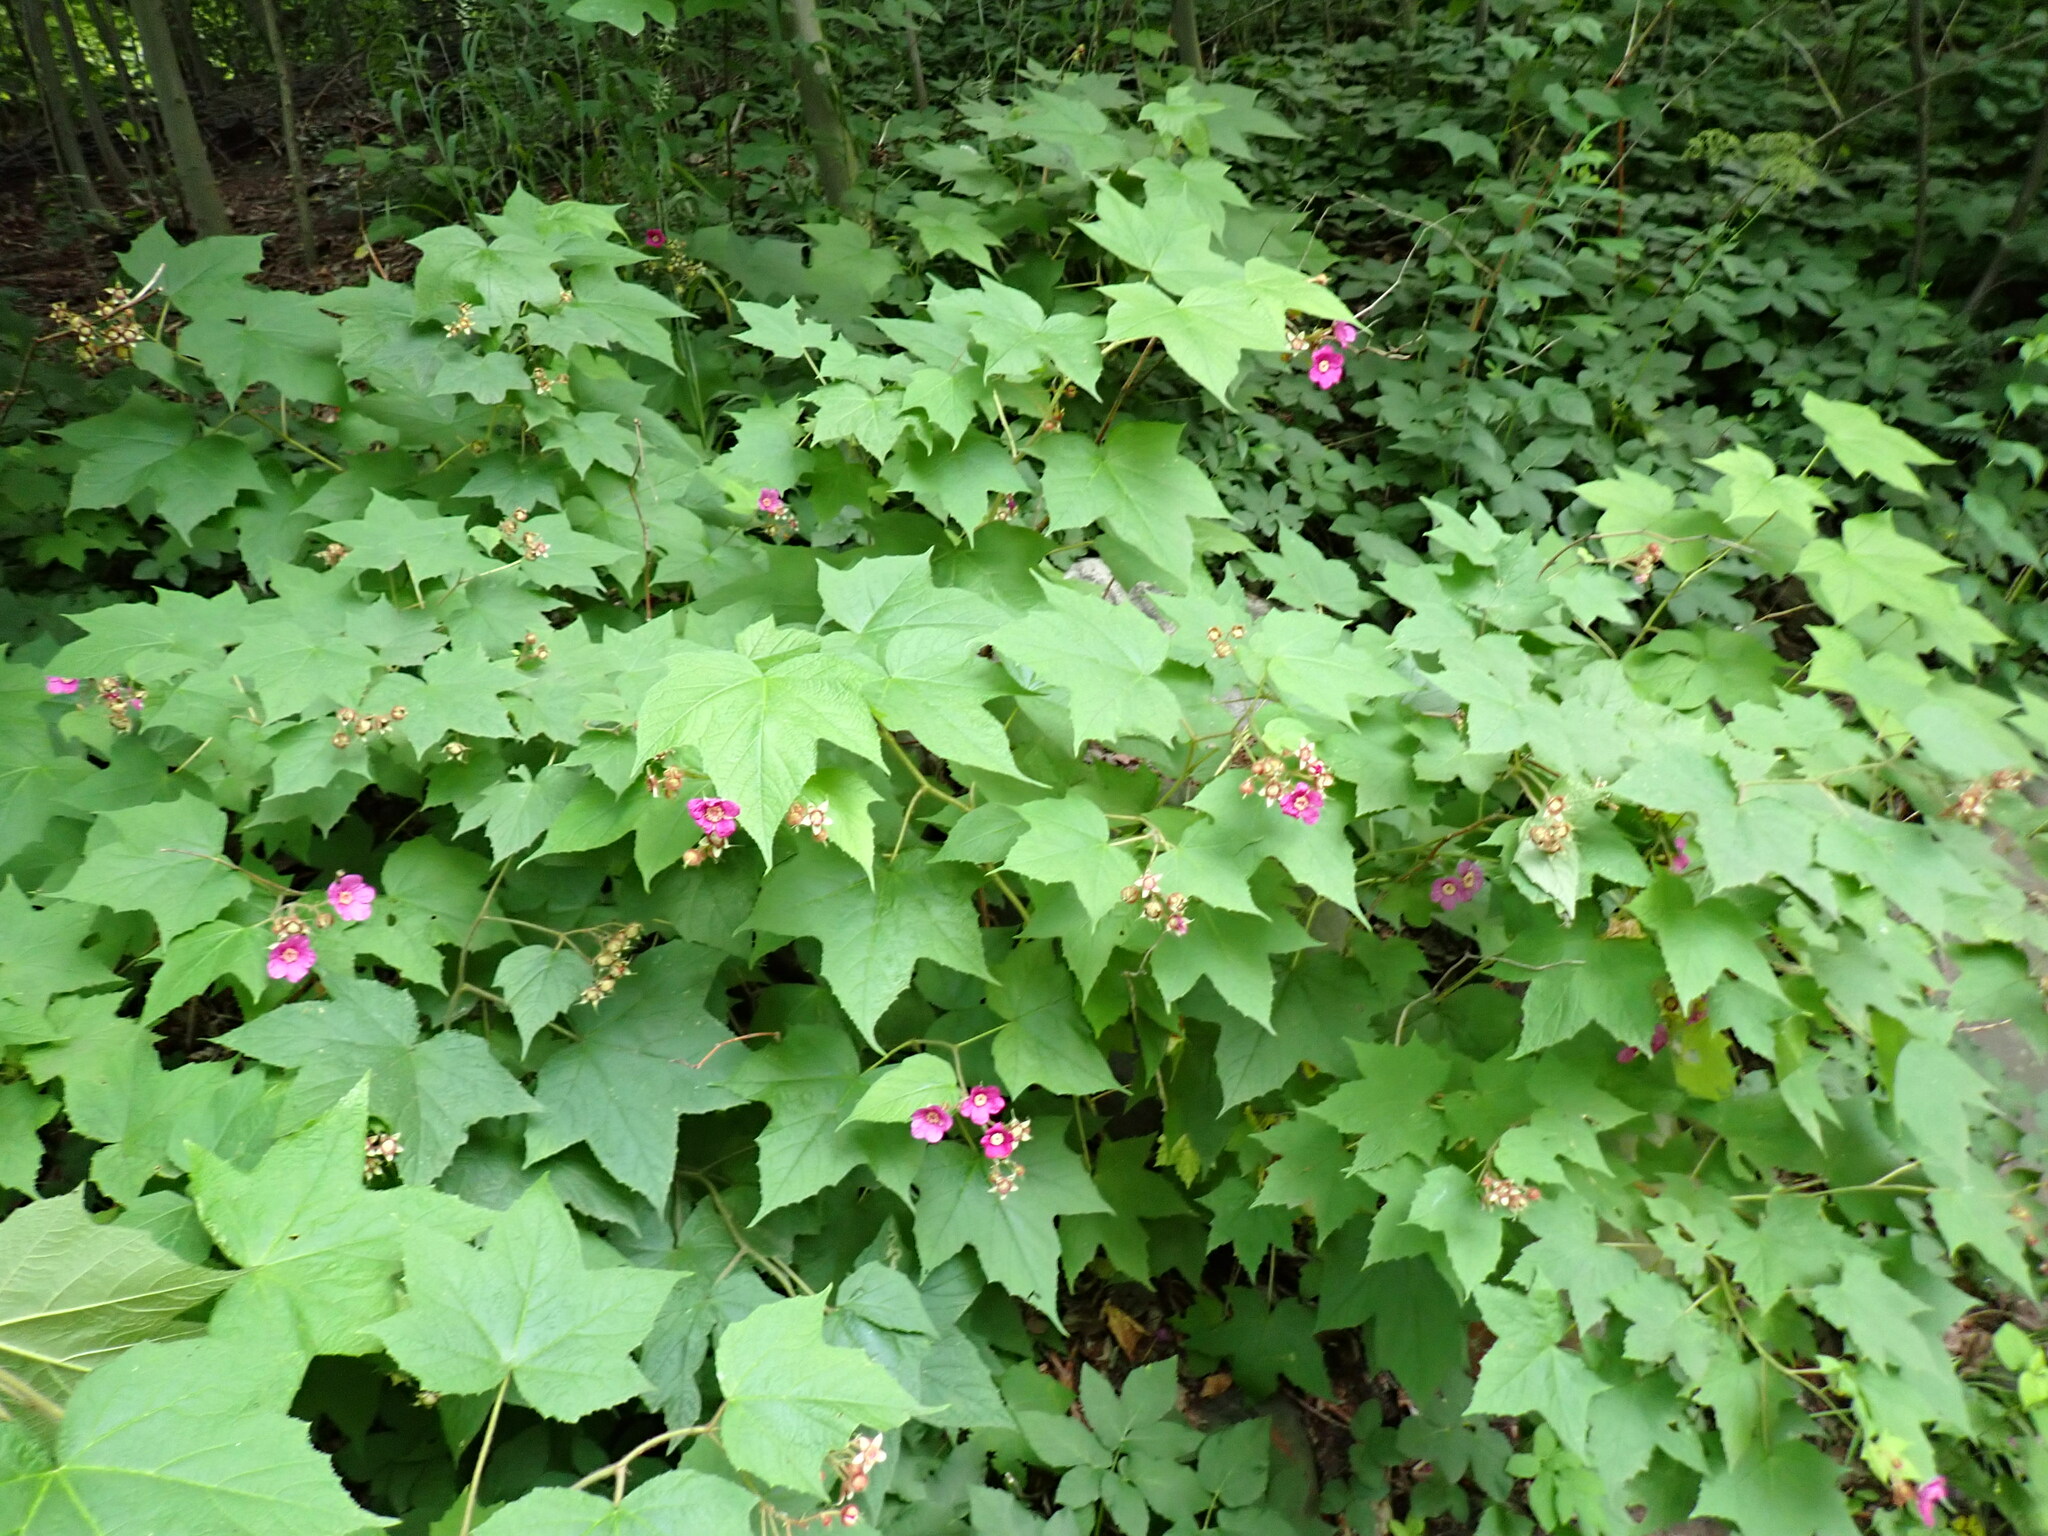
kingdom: Plantae
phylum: Tracheophyta
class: Magnoliopsida
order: Rosales
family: Rosaceae
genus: Rubus
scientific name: Rubus odoratus
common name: Purple-flowered raspberry
